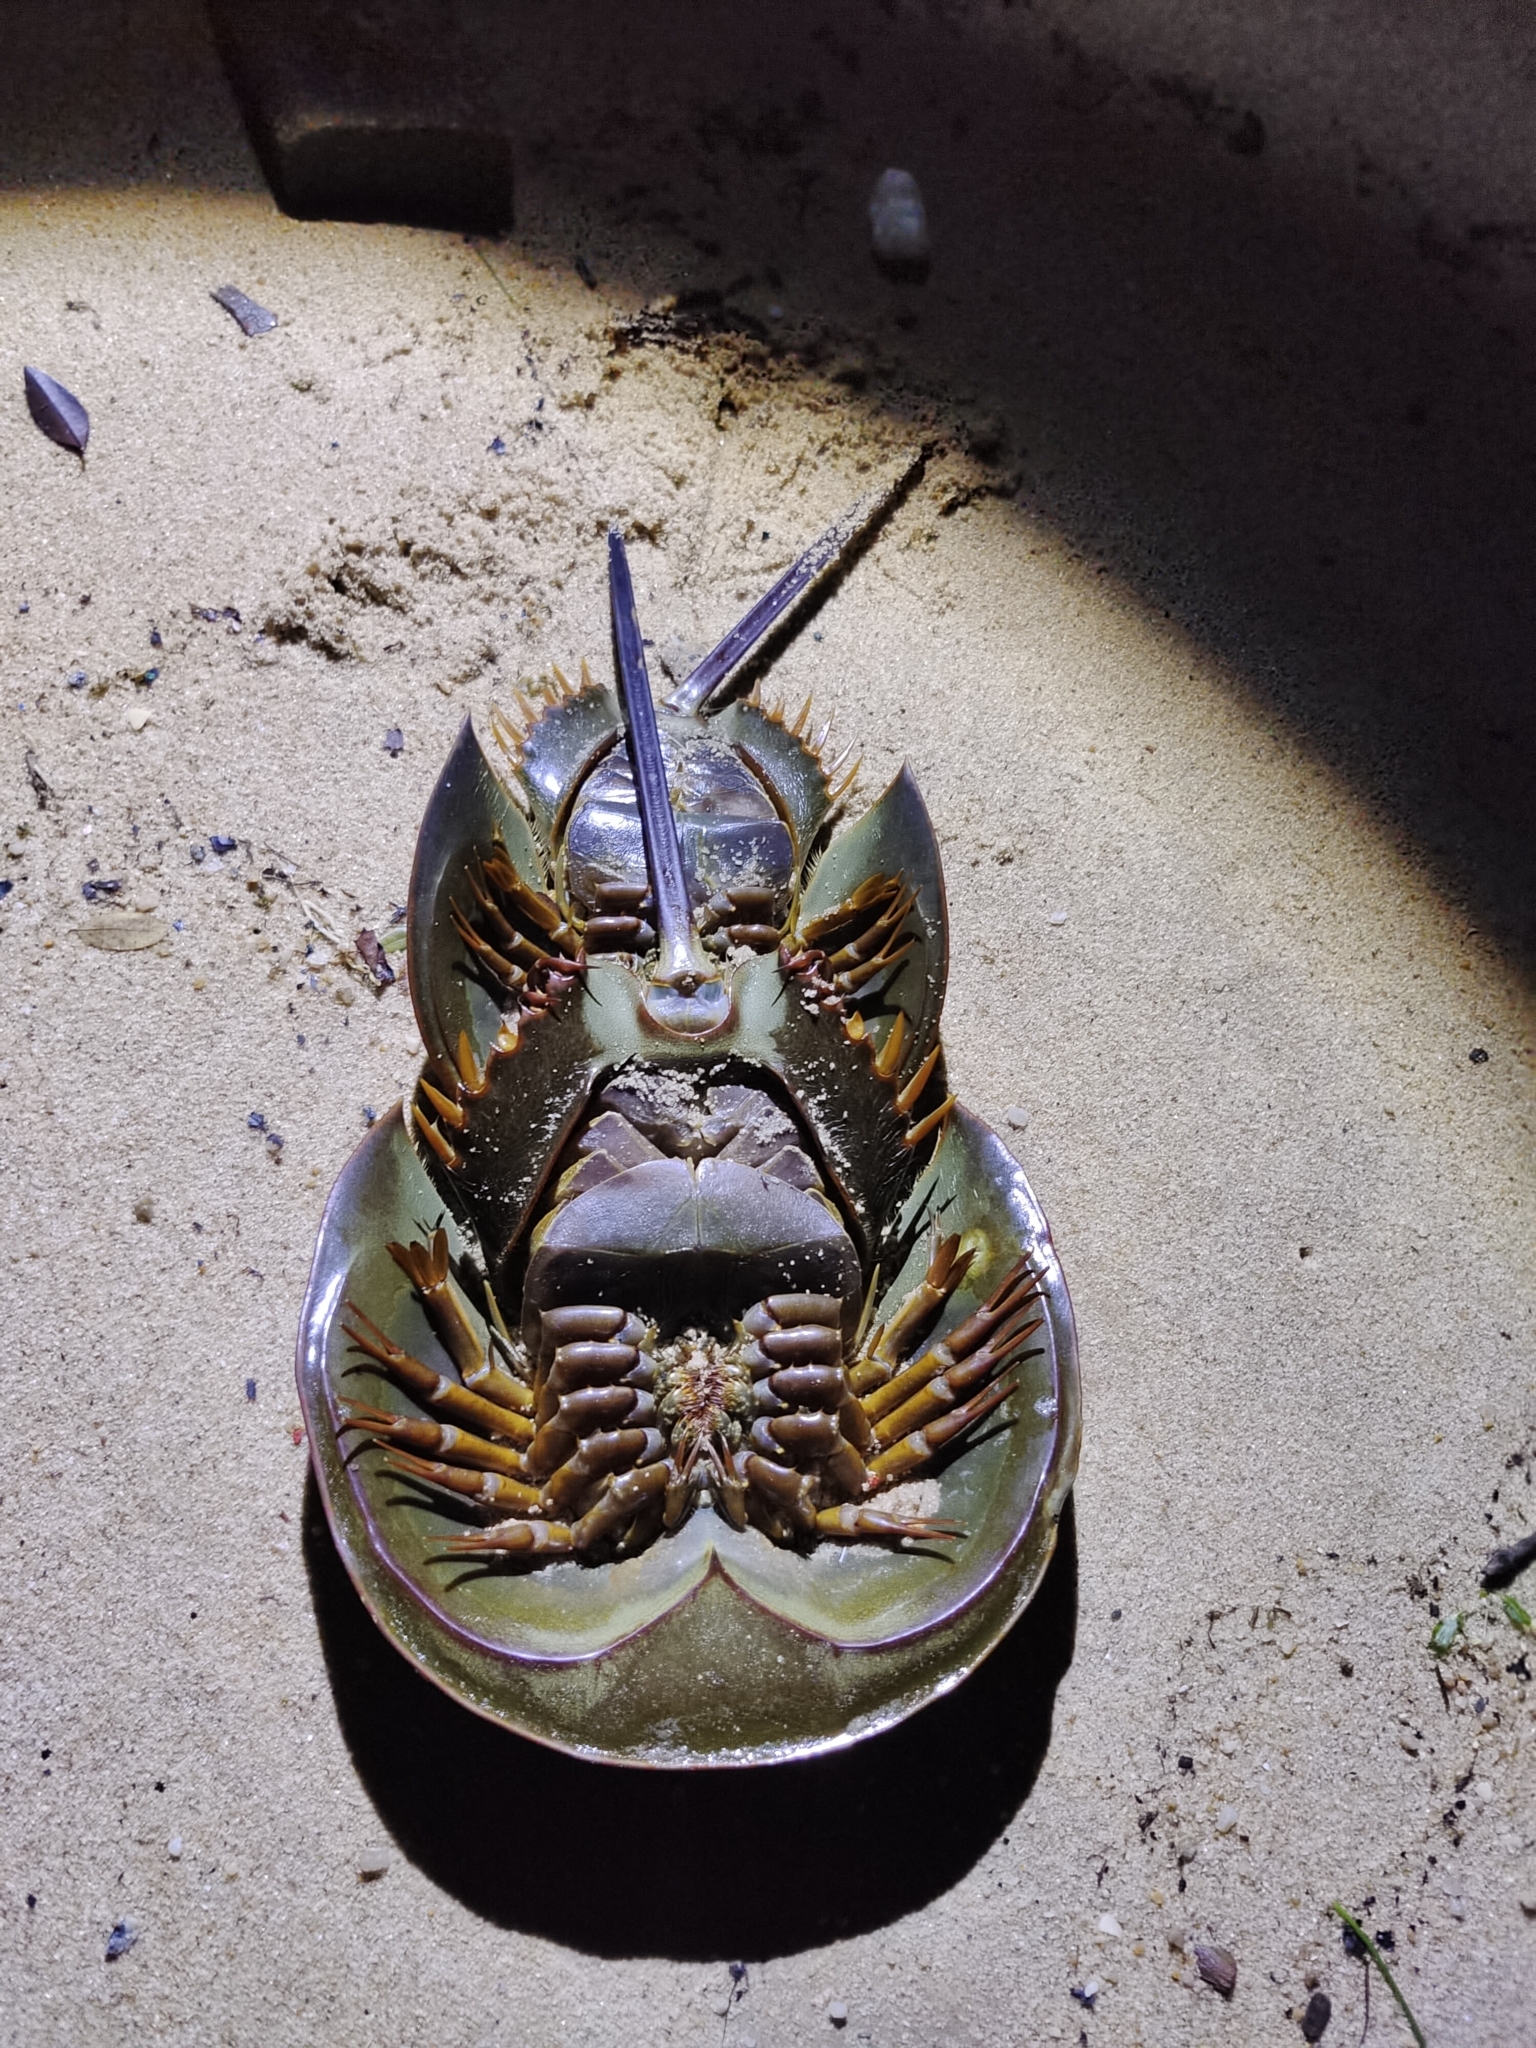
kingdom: Animalia
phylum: Arthropoda
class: Merostomata
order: Xiphosurida
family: Limulidae
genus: Tachypleus
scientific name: Tachypleus gigas
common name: Coastal horseshoe crab
